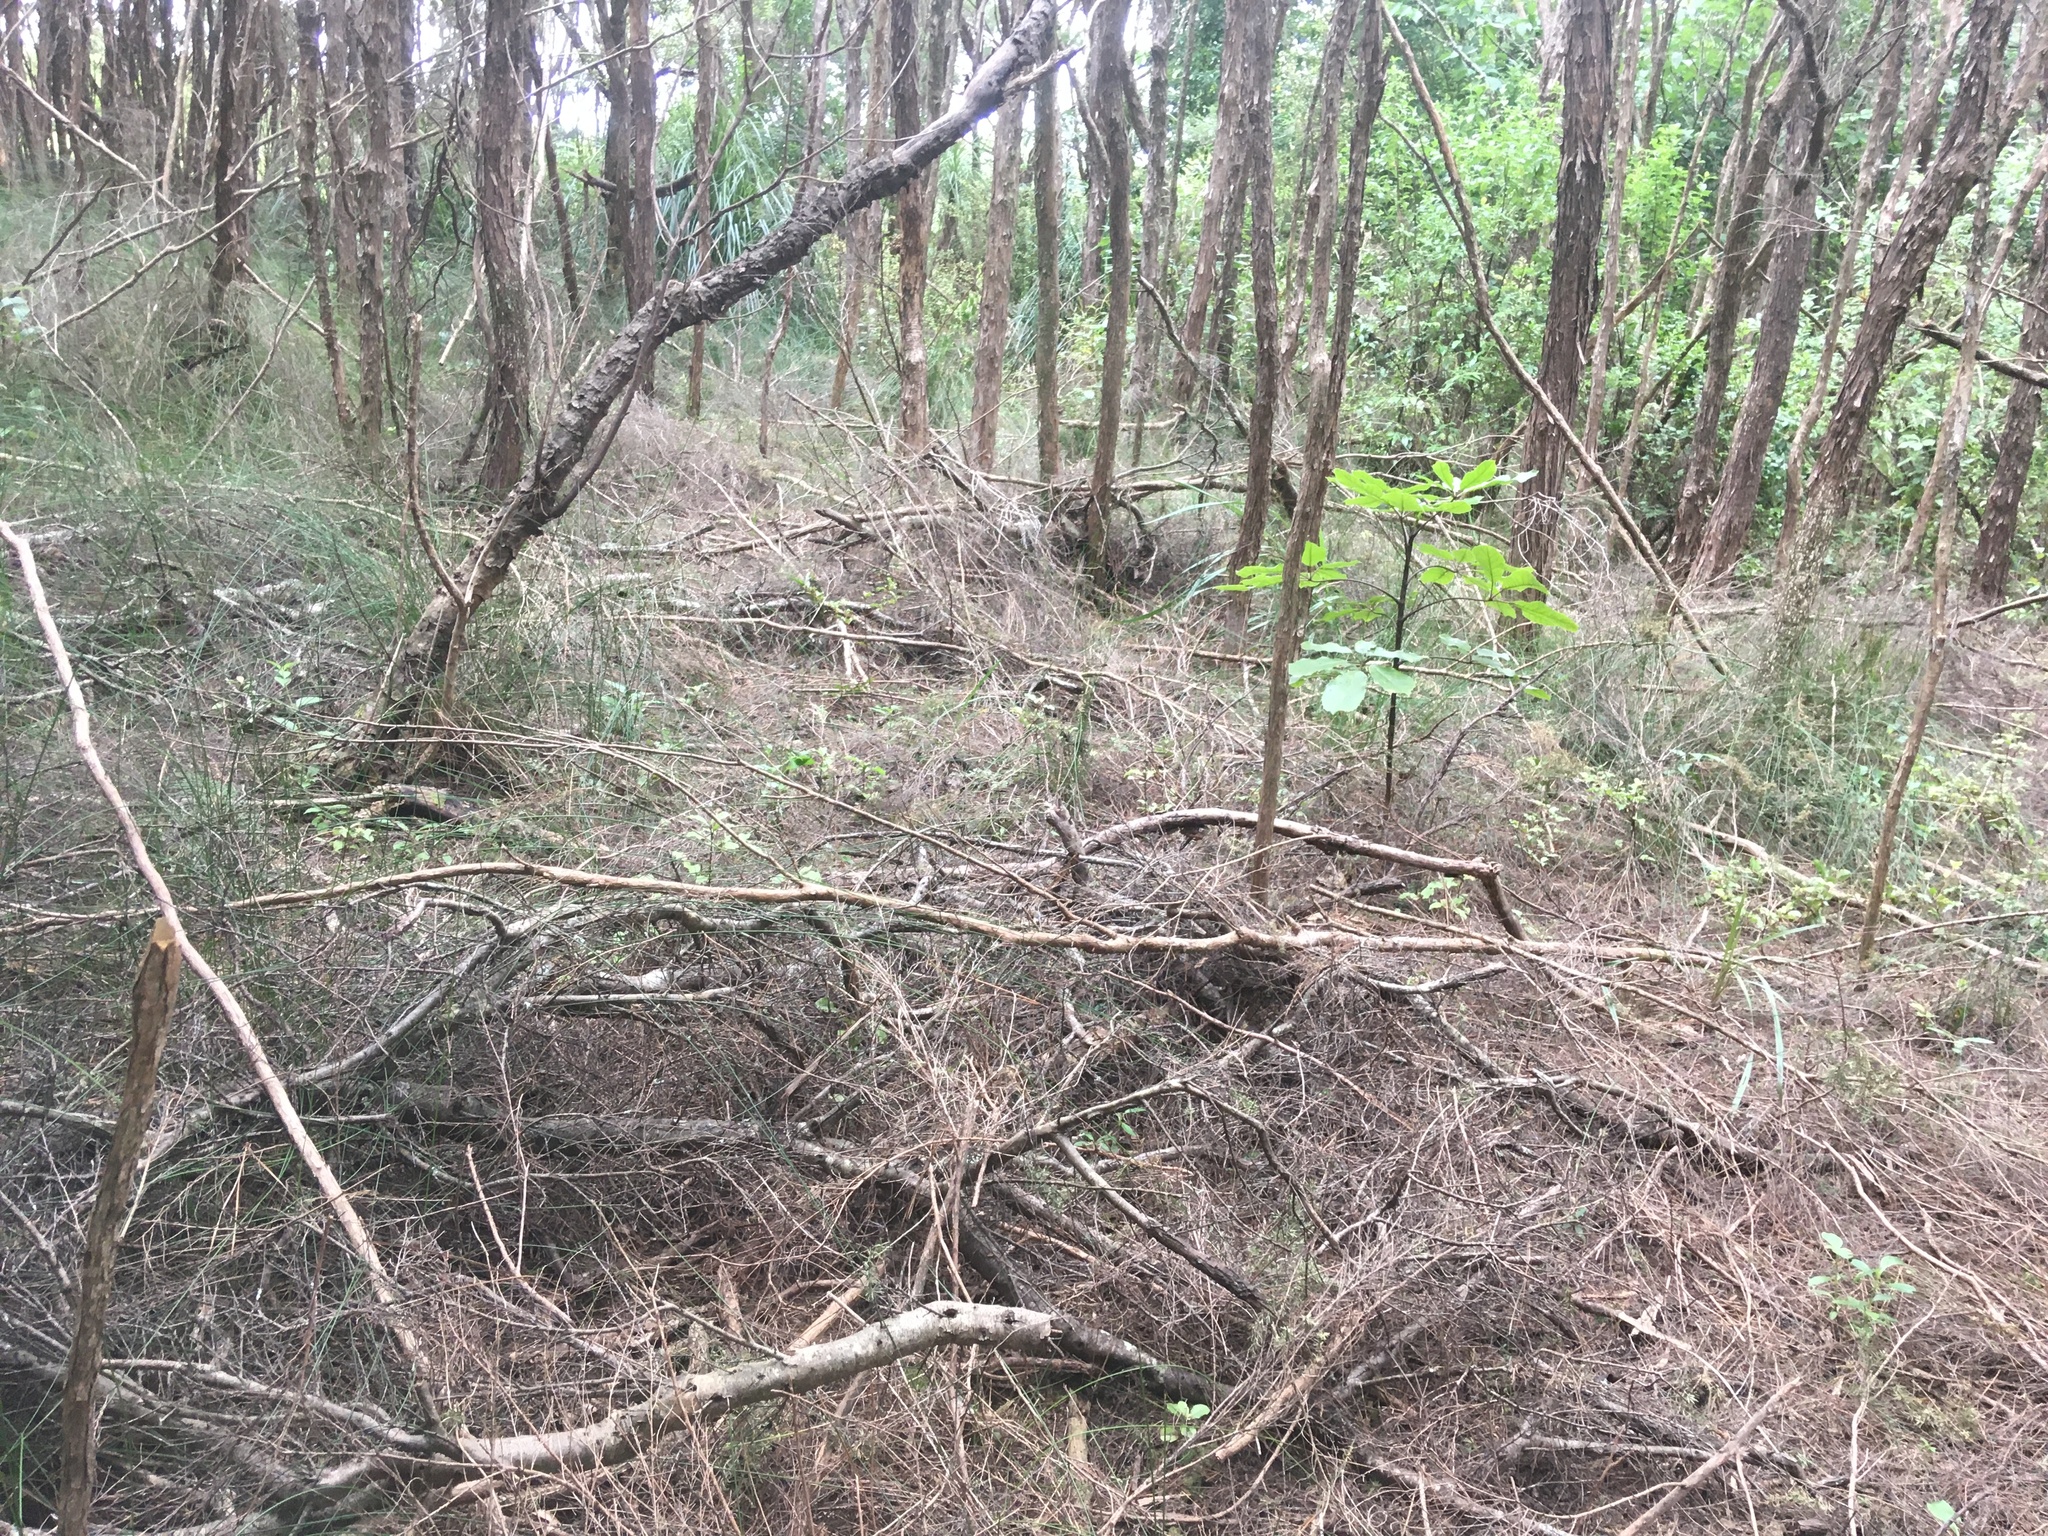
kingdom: Plantae
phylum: Tracheophyta
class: Magnoliopsida
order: Apiales
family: Araliaceae
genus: Neopanax
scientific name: Neopanax arboreus
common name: Five-fingers
